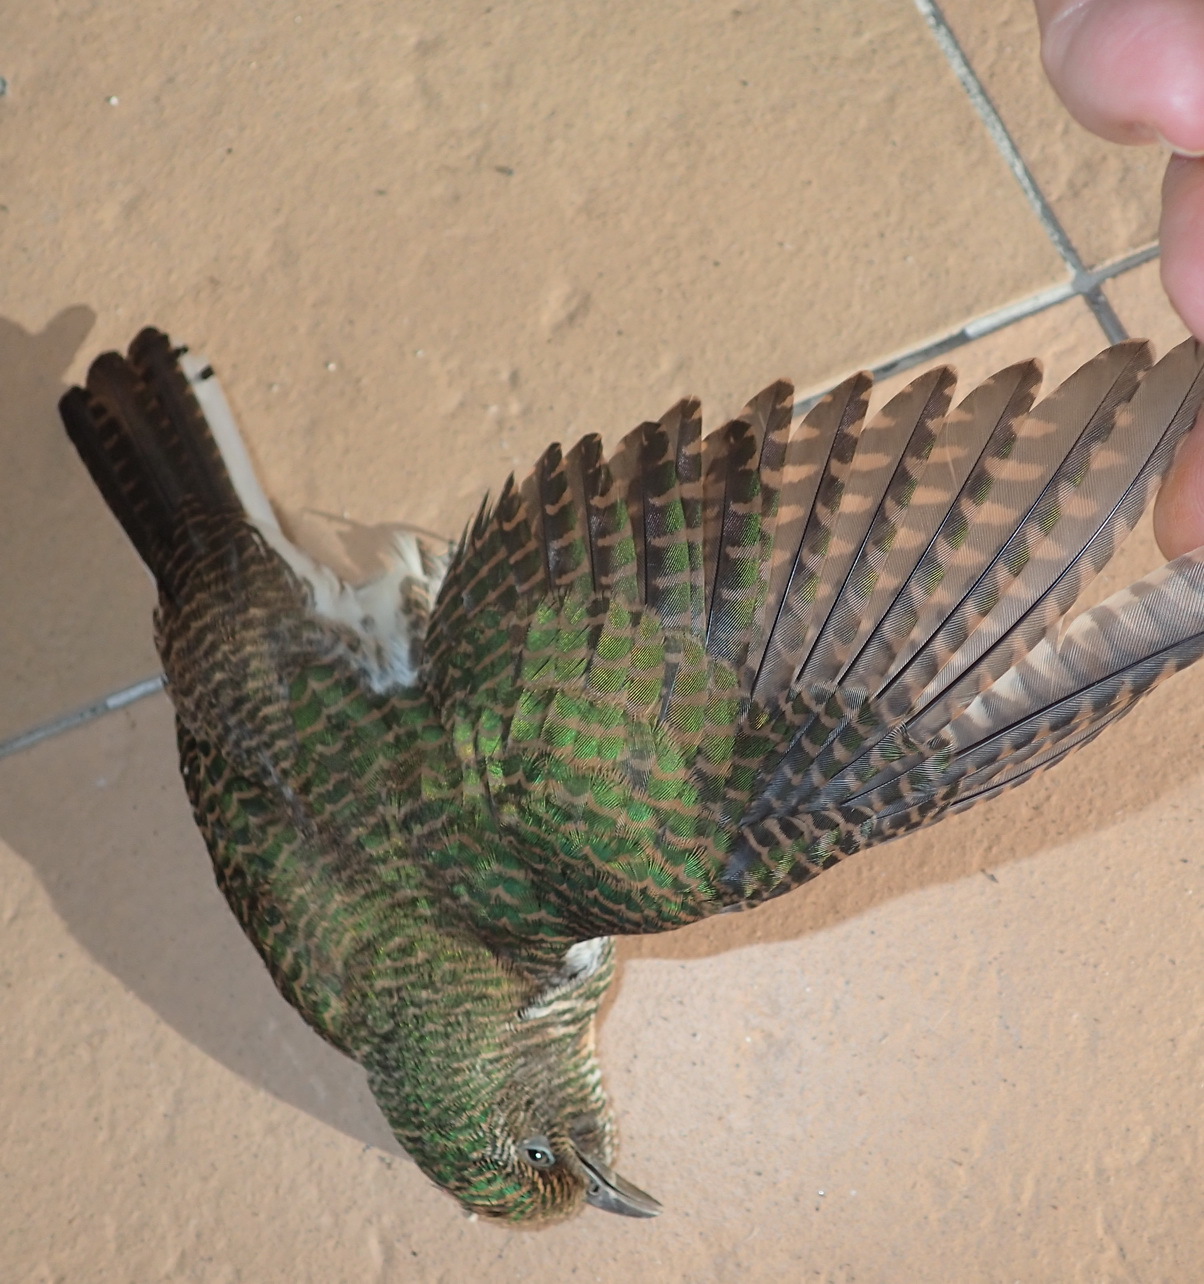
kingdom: Animalia
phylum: Chordata
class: Aves
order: Cuculiformes
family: Cuculidae
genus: Chrysococcyx
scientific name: Chrysococcyx klaas
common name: Klaas's cuckoo
